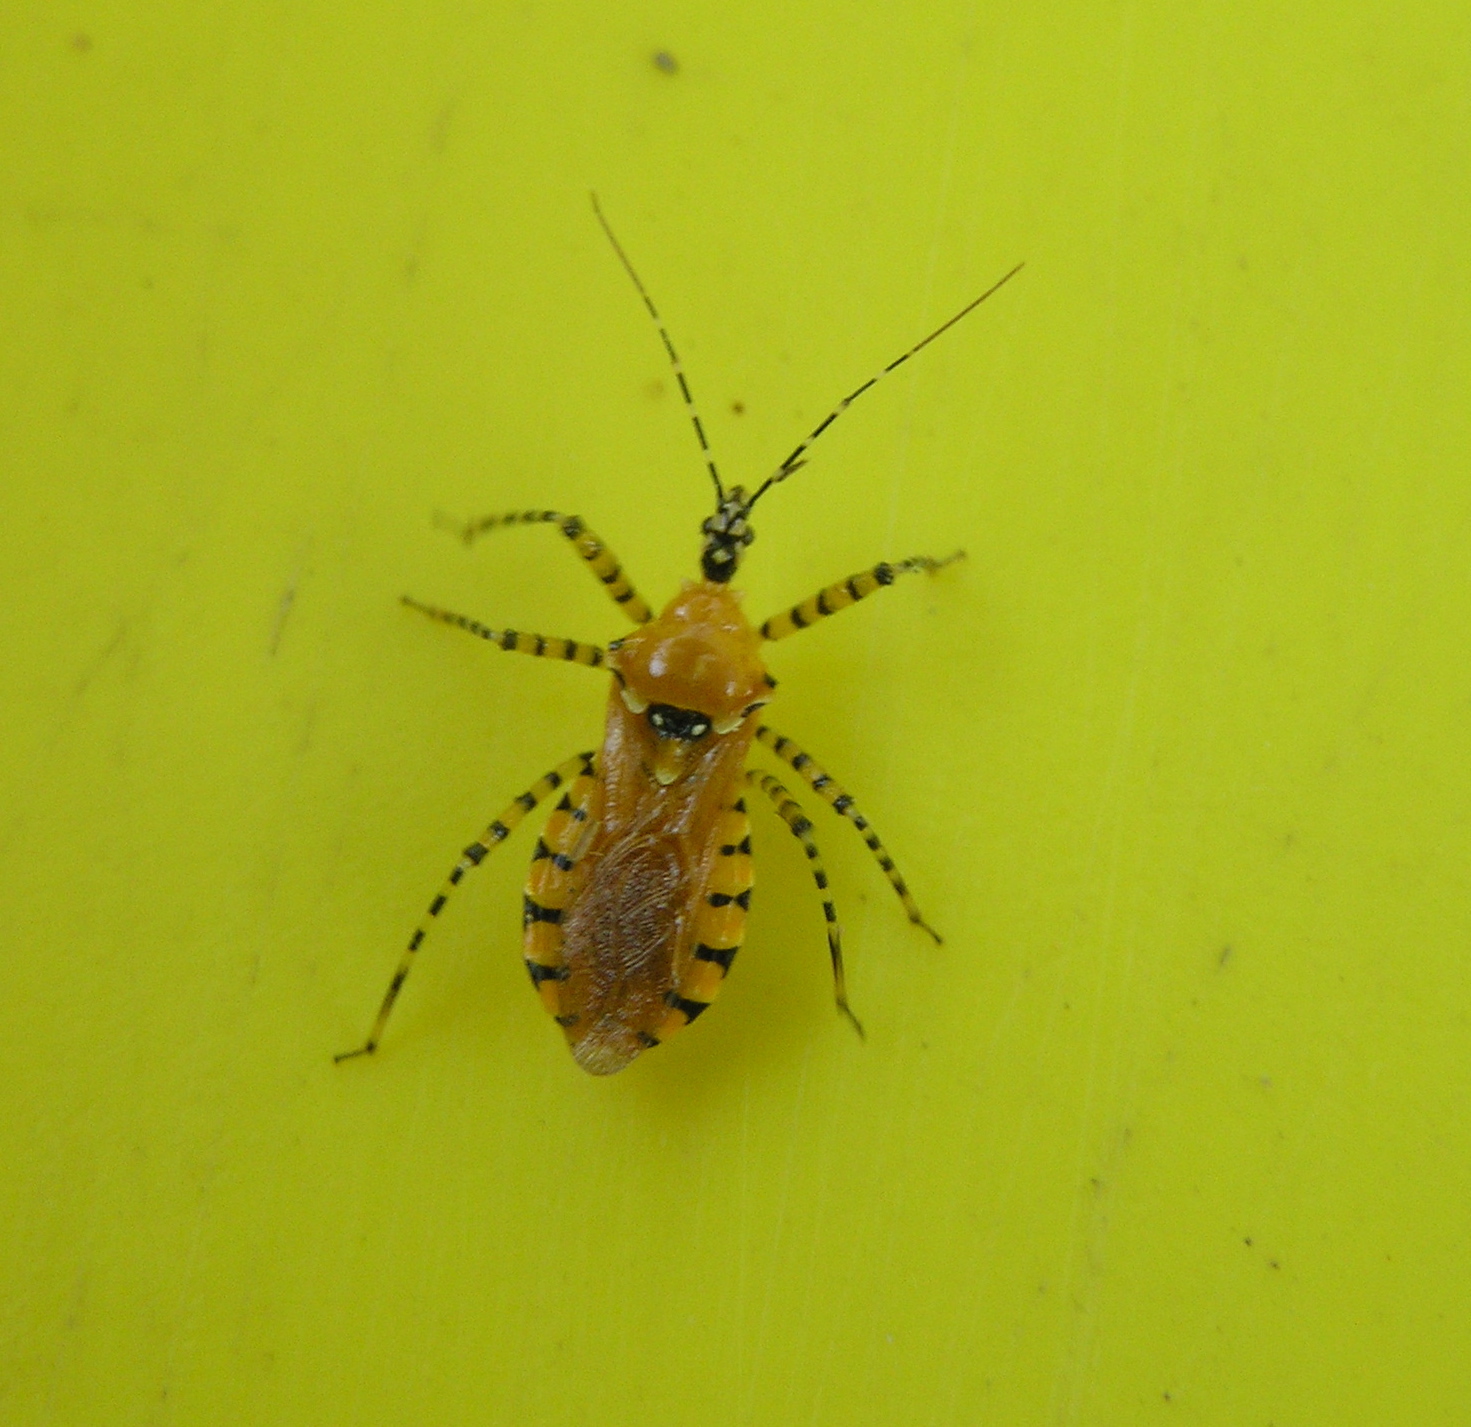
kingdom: Animalia
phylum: Arthropoda
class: Insecta
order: Hemiptera
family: Reduviidae
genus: Pselliopus
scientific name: Pselliopus barberi
